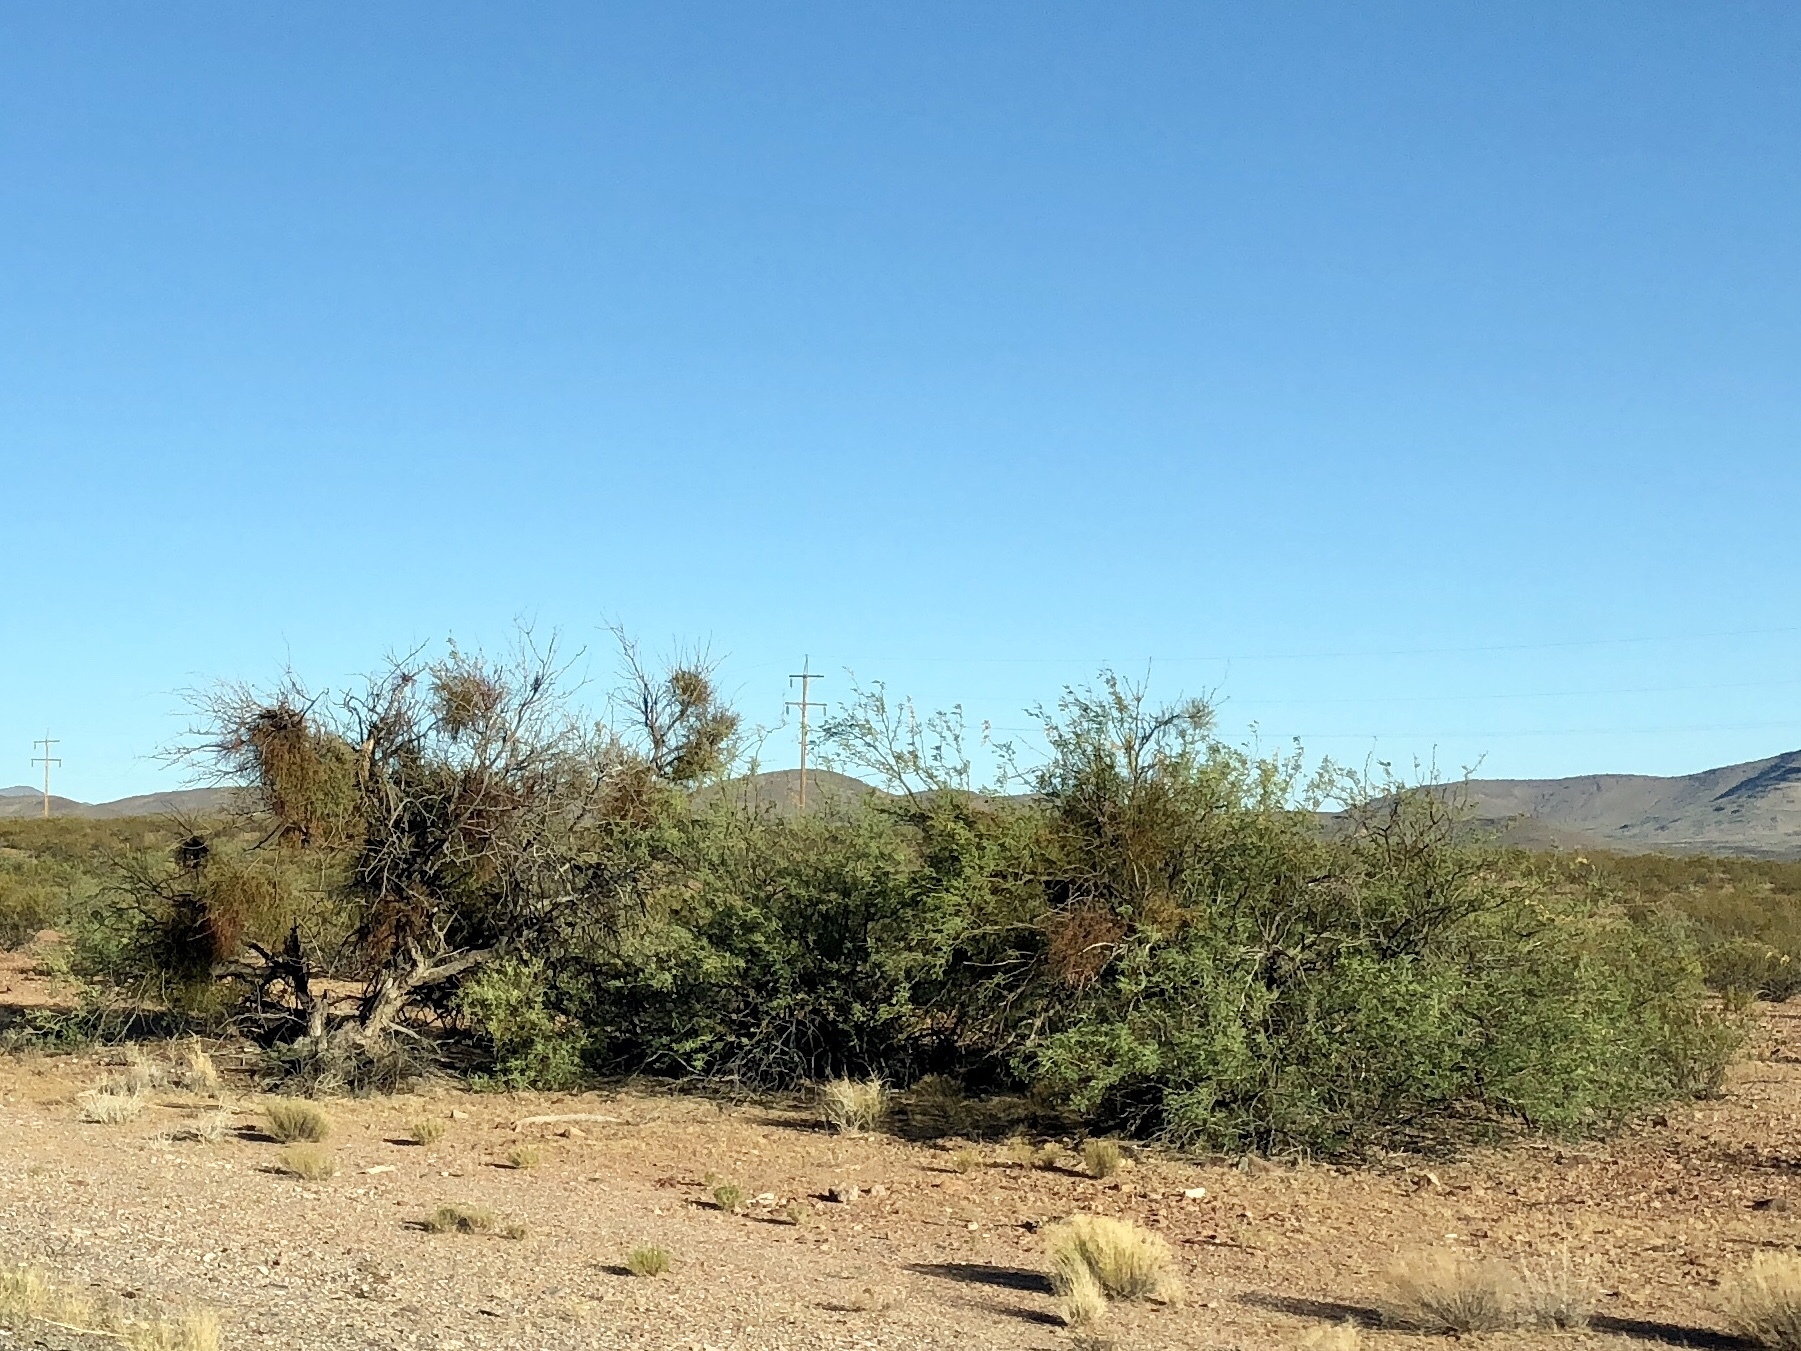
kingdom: Plantae
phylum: Tracheophyta
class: Magnoliopsida
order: Fabales
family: Fabaceae
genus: Senegalia
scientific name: Senegalia greggii
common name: Texas-mimosa
